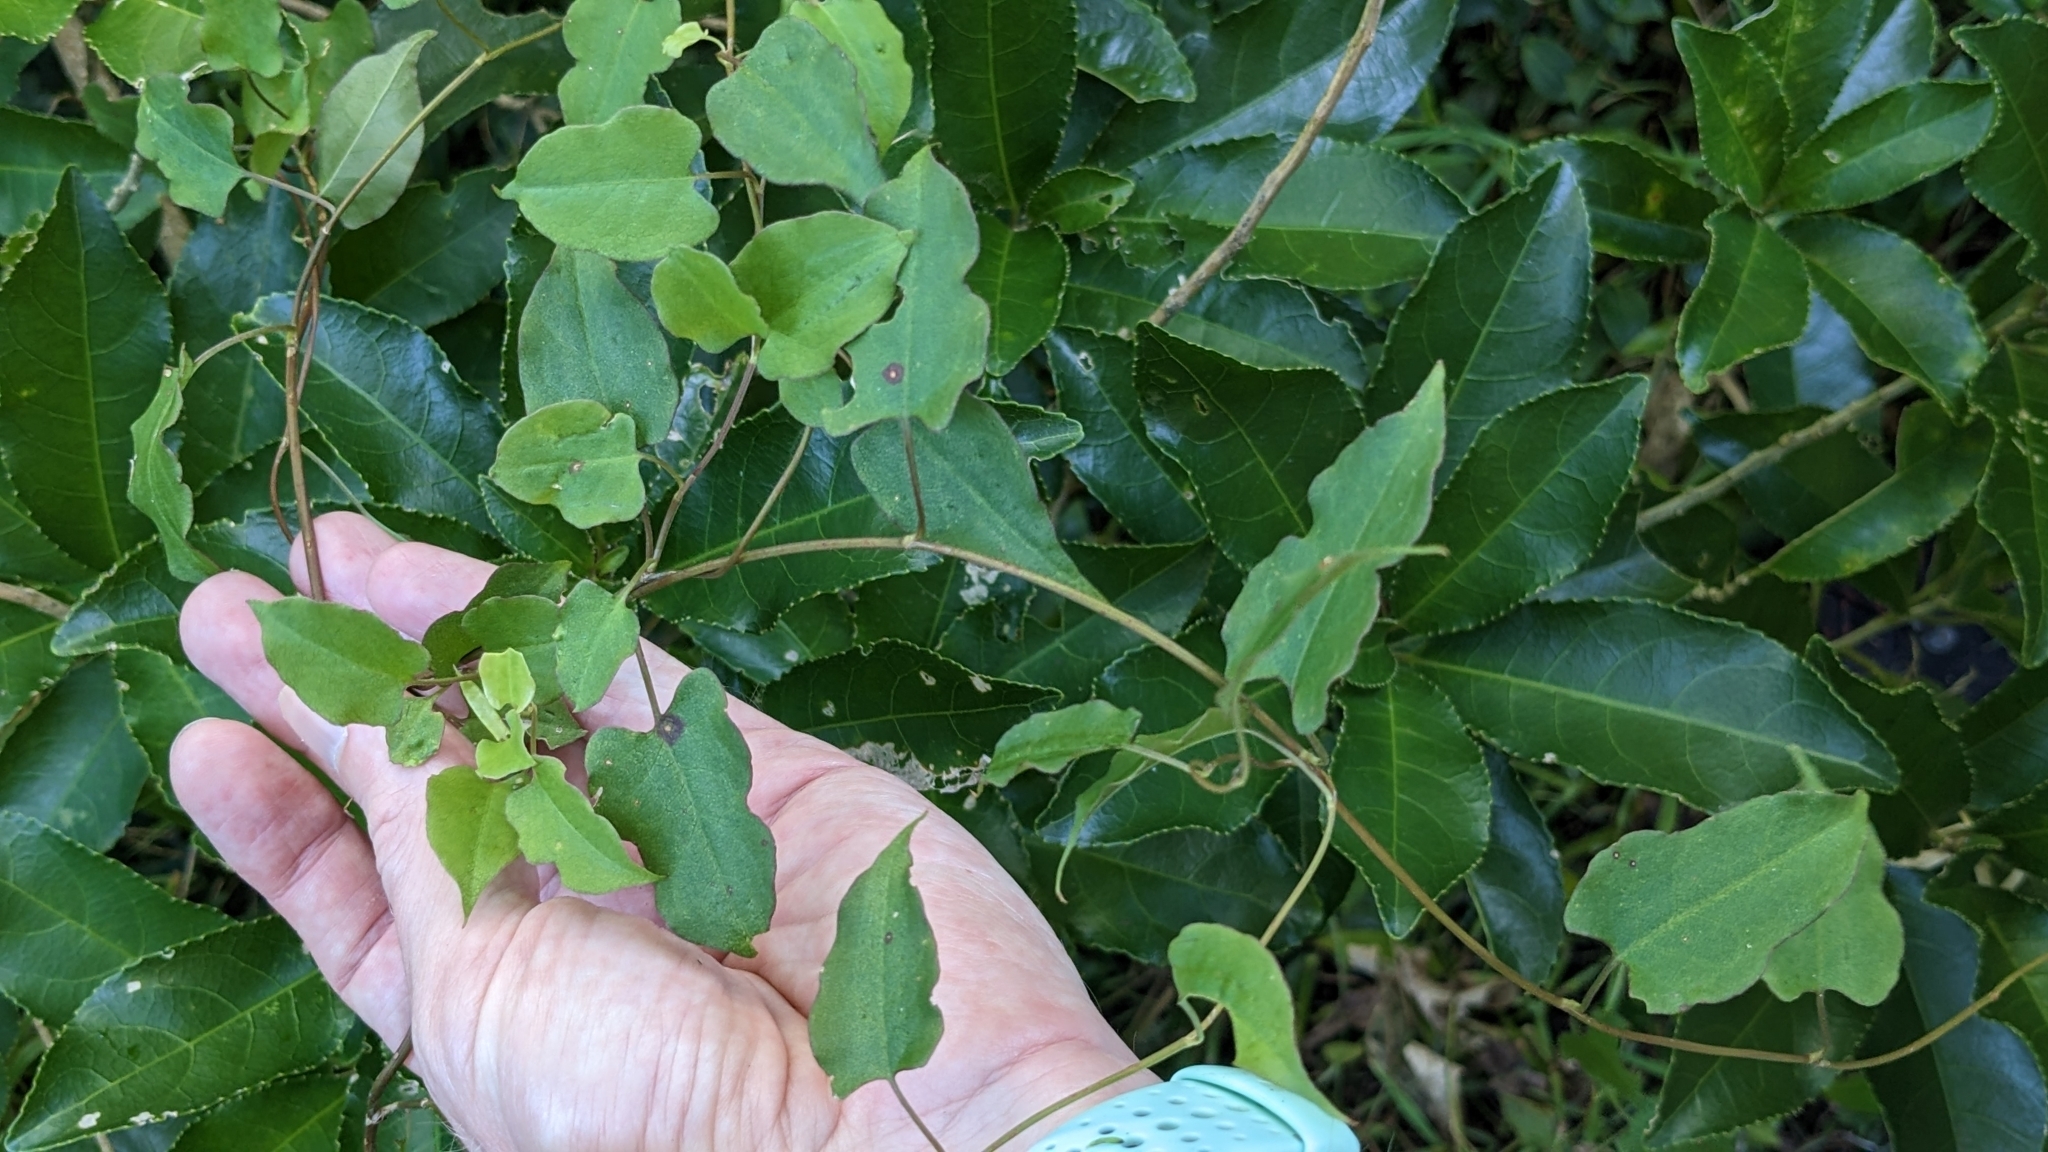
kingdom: Plantae
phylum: Tracheophyta
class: Magnoliopsida
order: Caryophyllales
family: Polygonaceae
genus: Muehlenbeckia
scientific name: Muehlenbeckia australis
